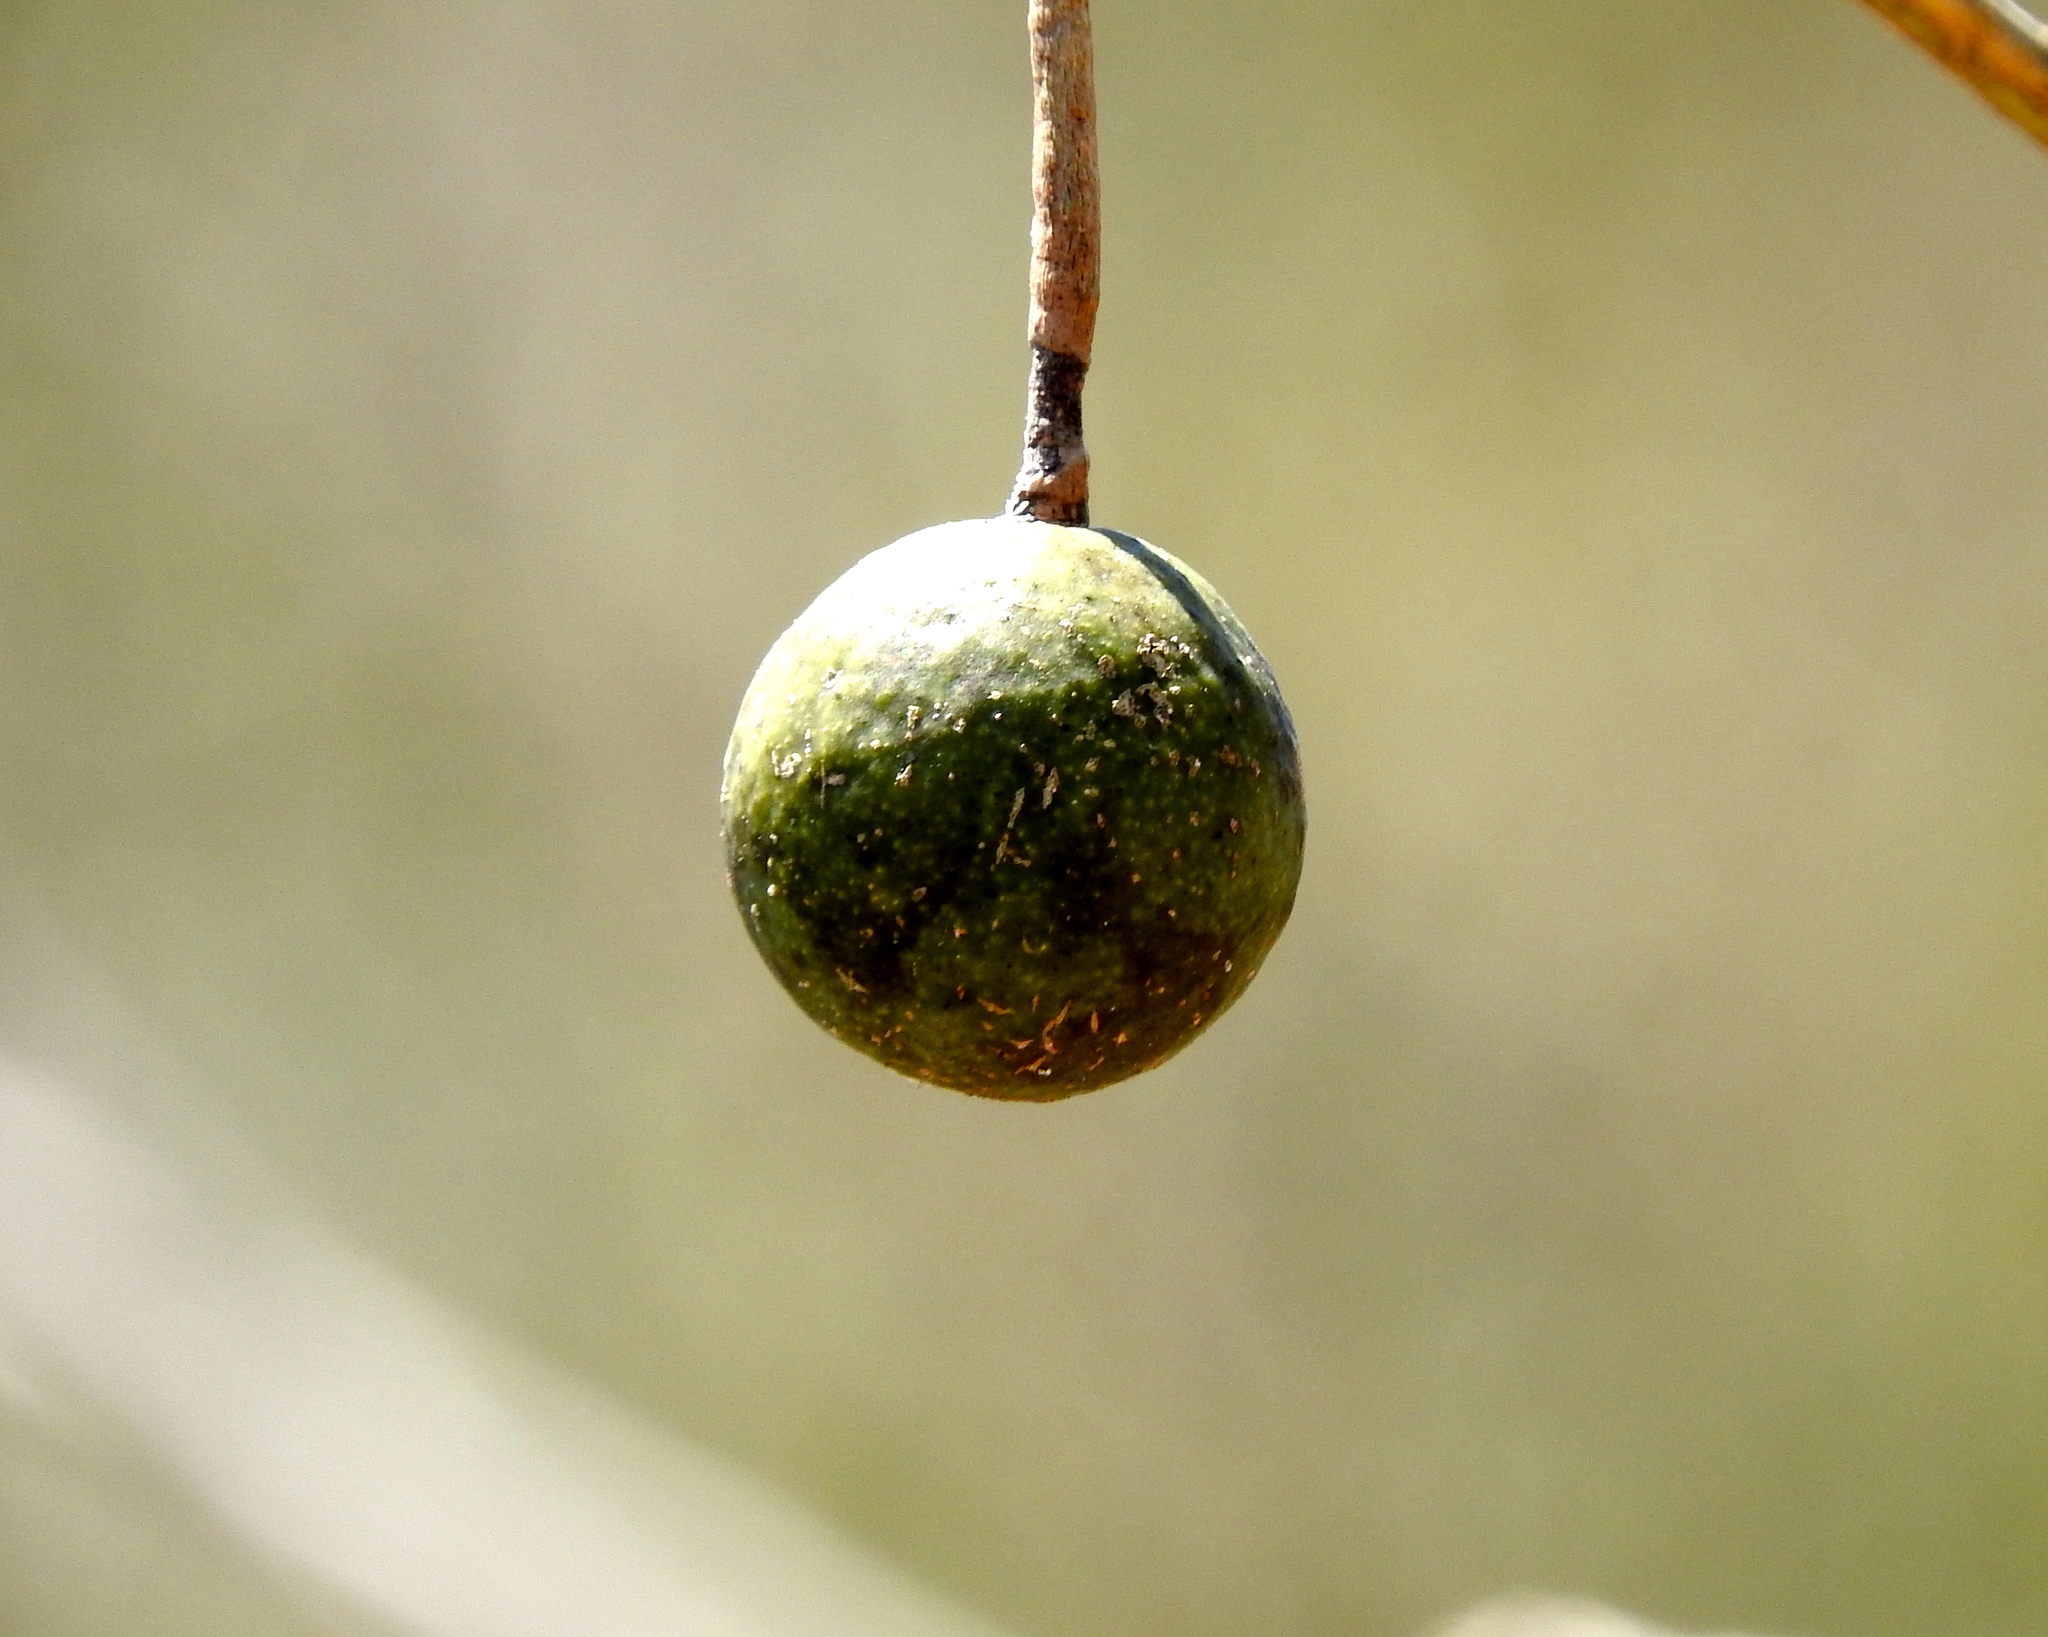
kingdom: Plantae
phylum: Tracheophyta
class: Magnoliopsida
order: Brassicales
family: Capparaceae
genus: Crateva
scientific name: Crateva tapia
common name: Garlic-pear
